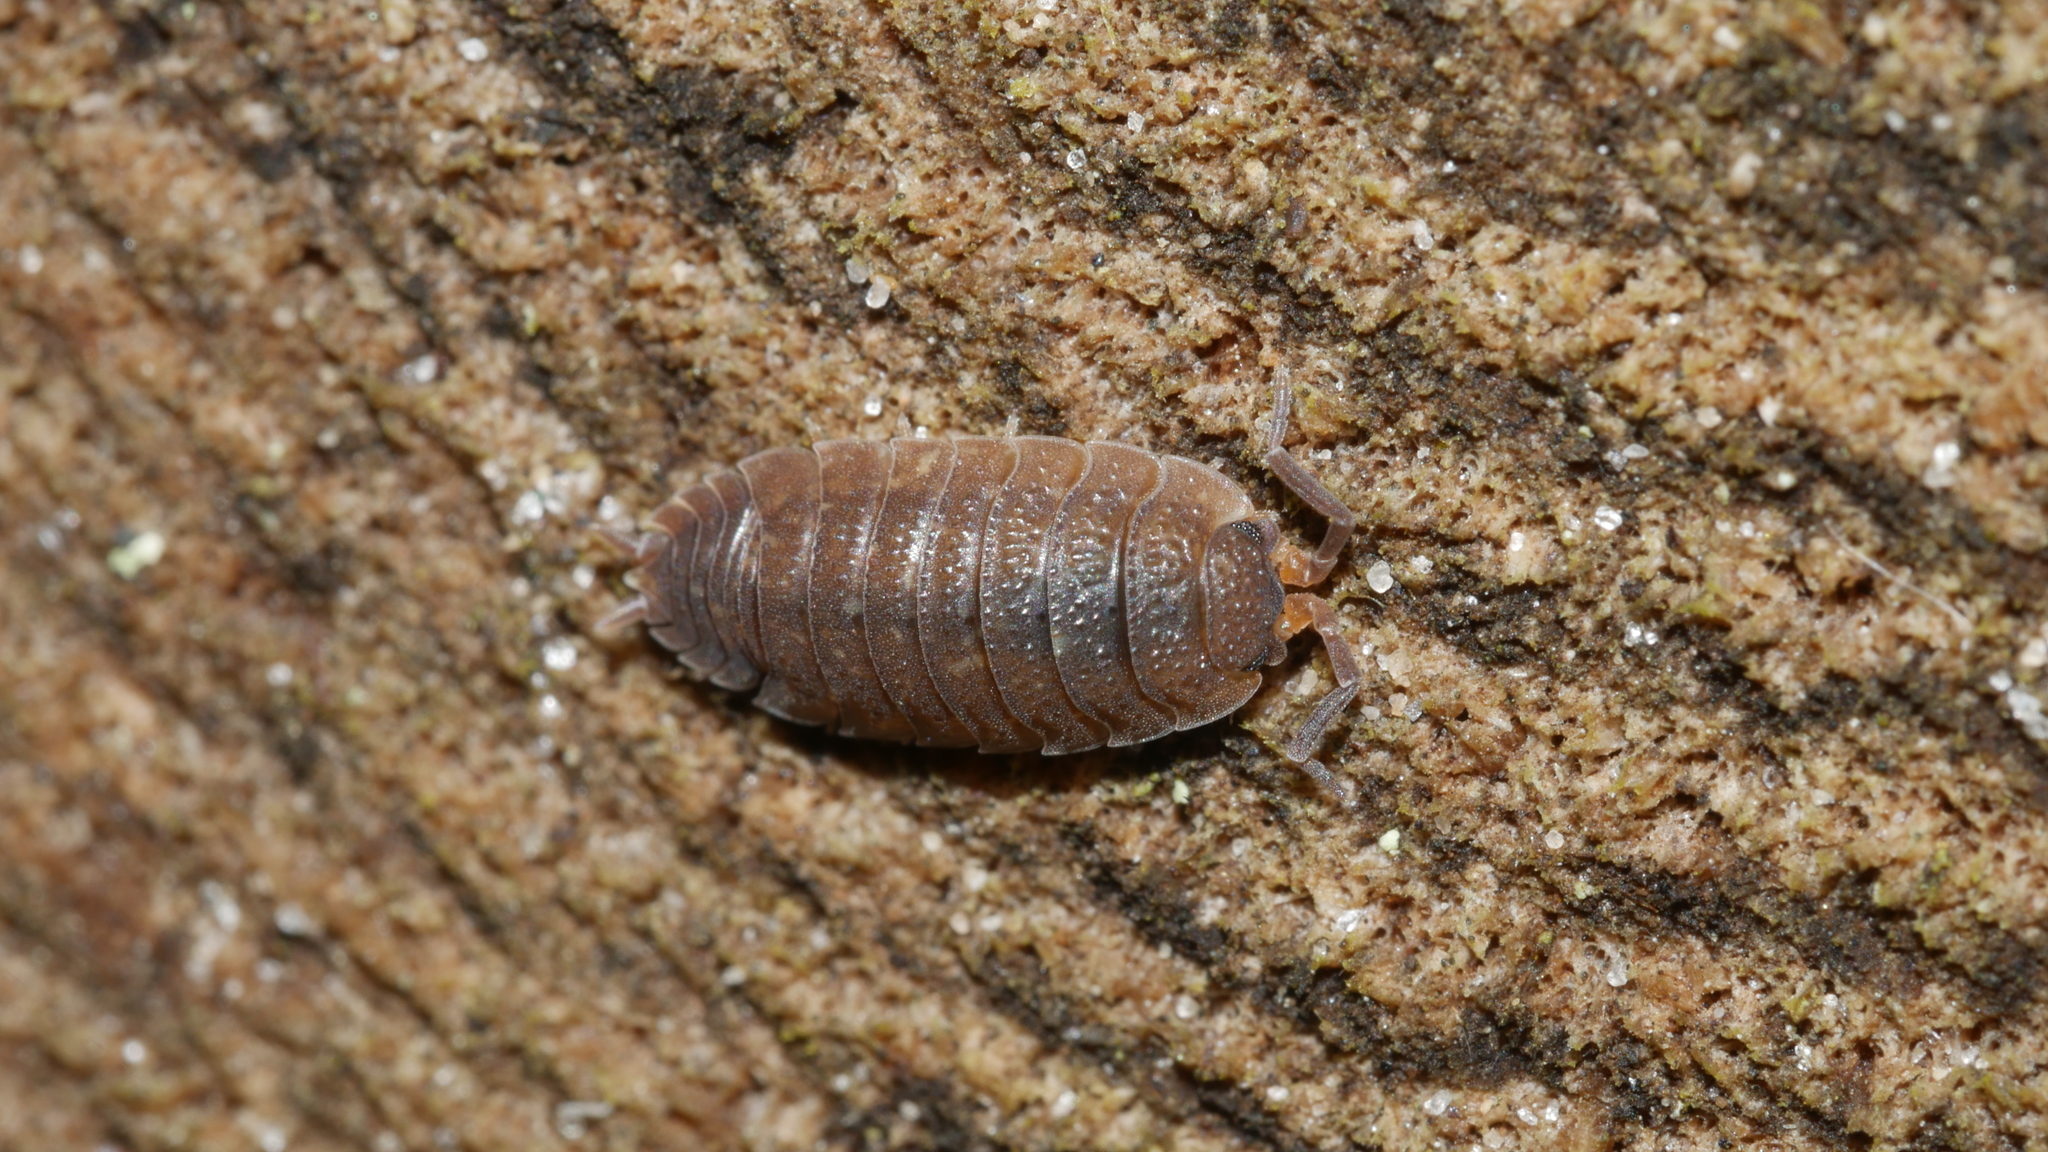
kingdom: Animalia
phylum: Arthropoda
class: Malacostraca
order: Isopoda
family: Porcellionidae
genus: Porcellio
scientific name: Porcellio scaber
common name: Common rough woodlouse
